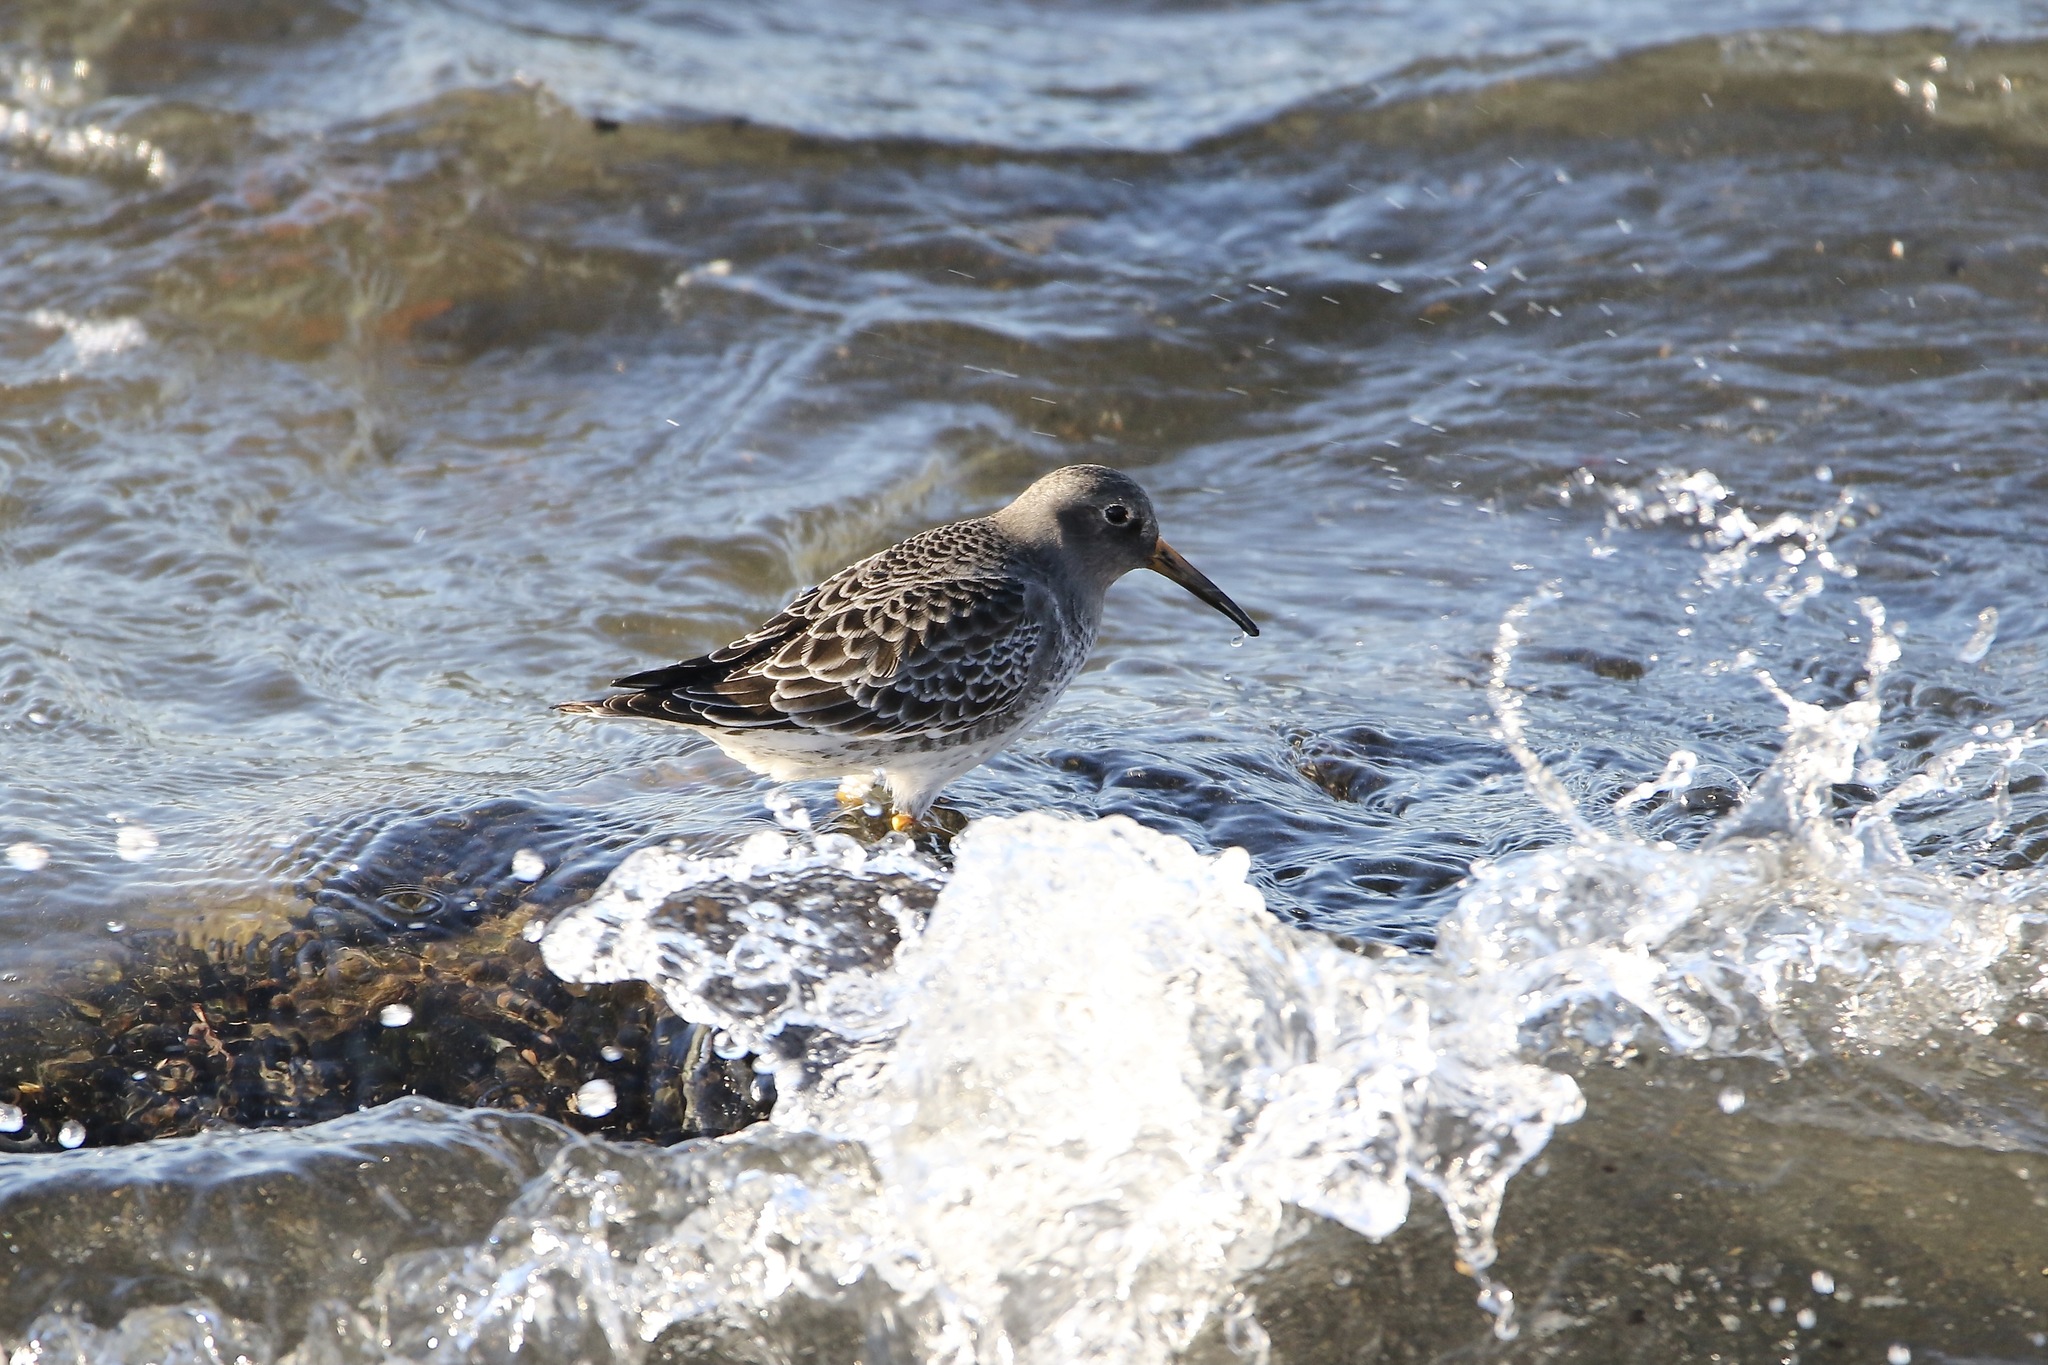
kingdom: Animalia
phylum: Chordata
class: Aves
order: Charadriiformes
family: Scolopacidae
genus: Calidris
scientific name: Calidris maritima
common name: Purple sandpiper
